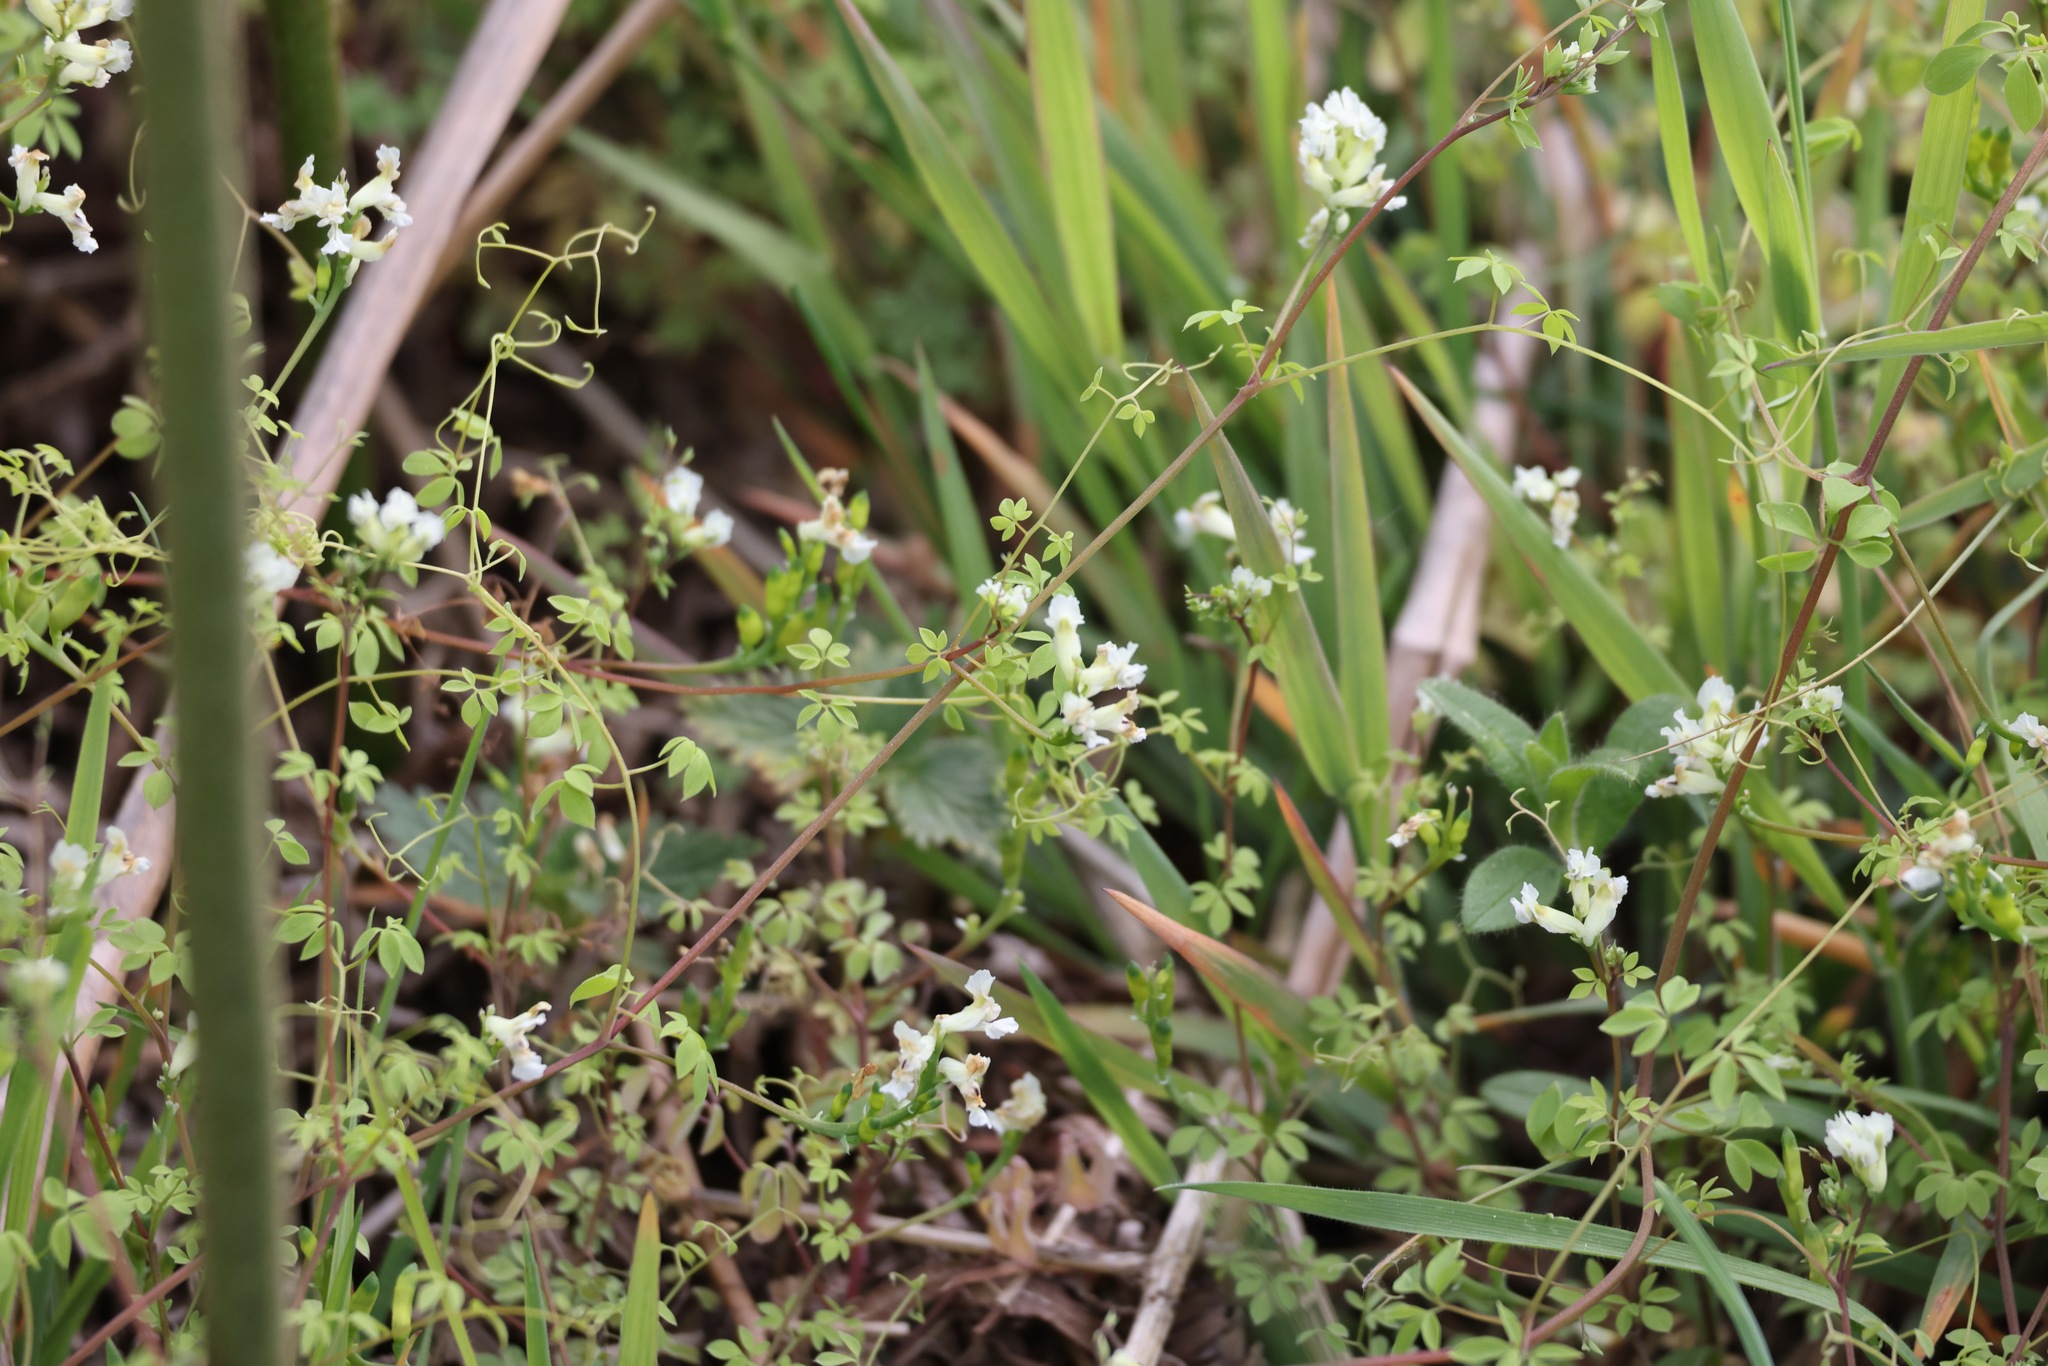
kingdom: Plantae
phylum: Tracheophyta
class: Magnoliopsida
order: Ranunculales
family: Papaveraceae
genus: Ceratocapnos
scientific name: Ceratocapnos claviculata
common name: Climbing corydalis
